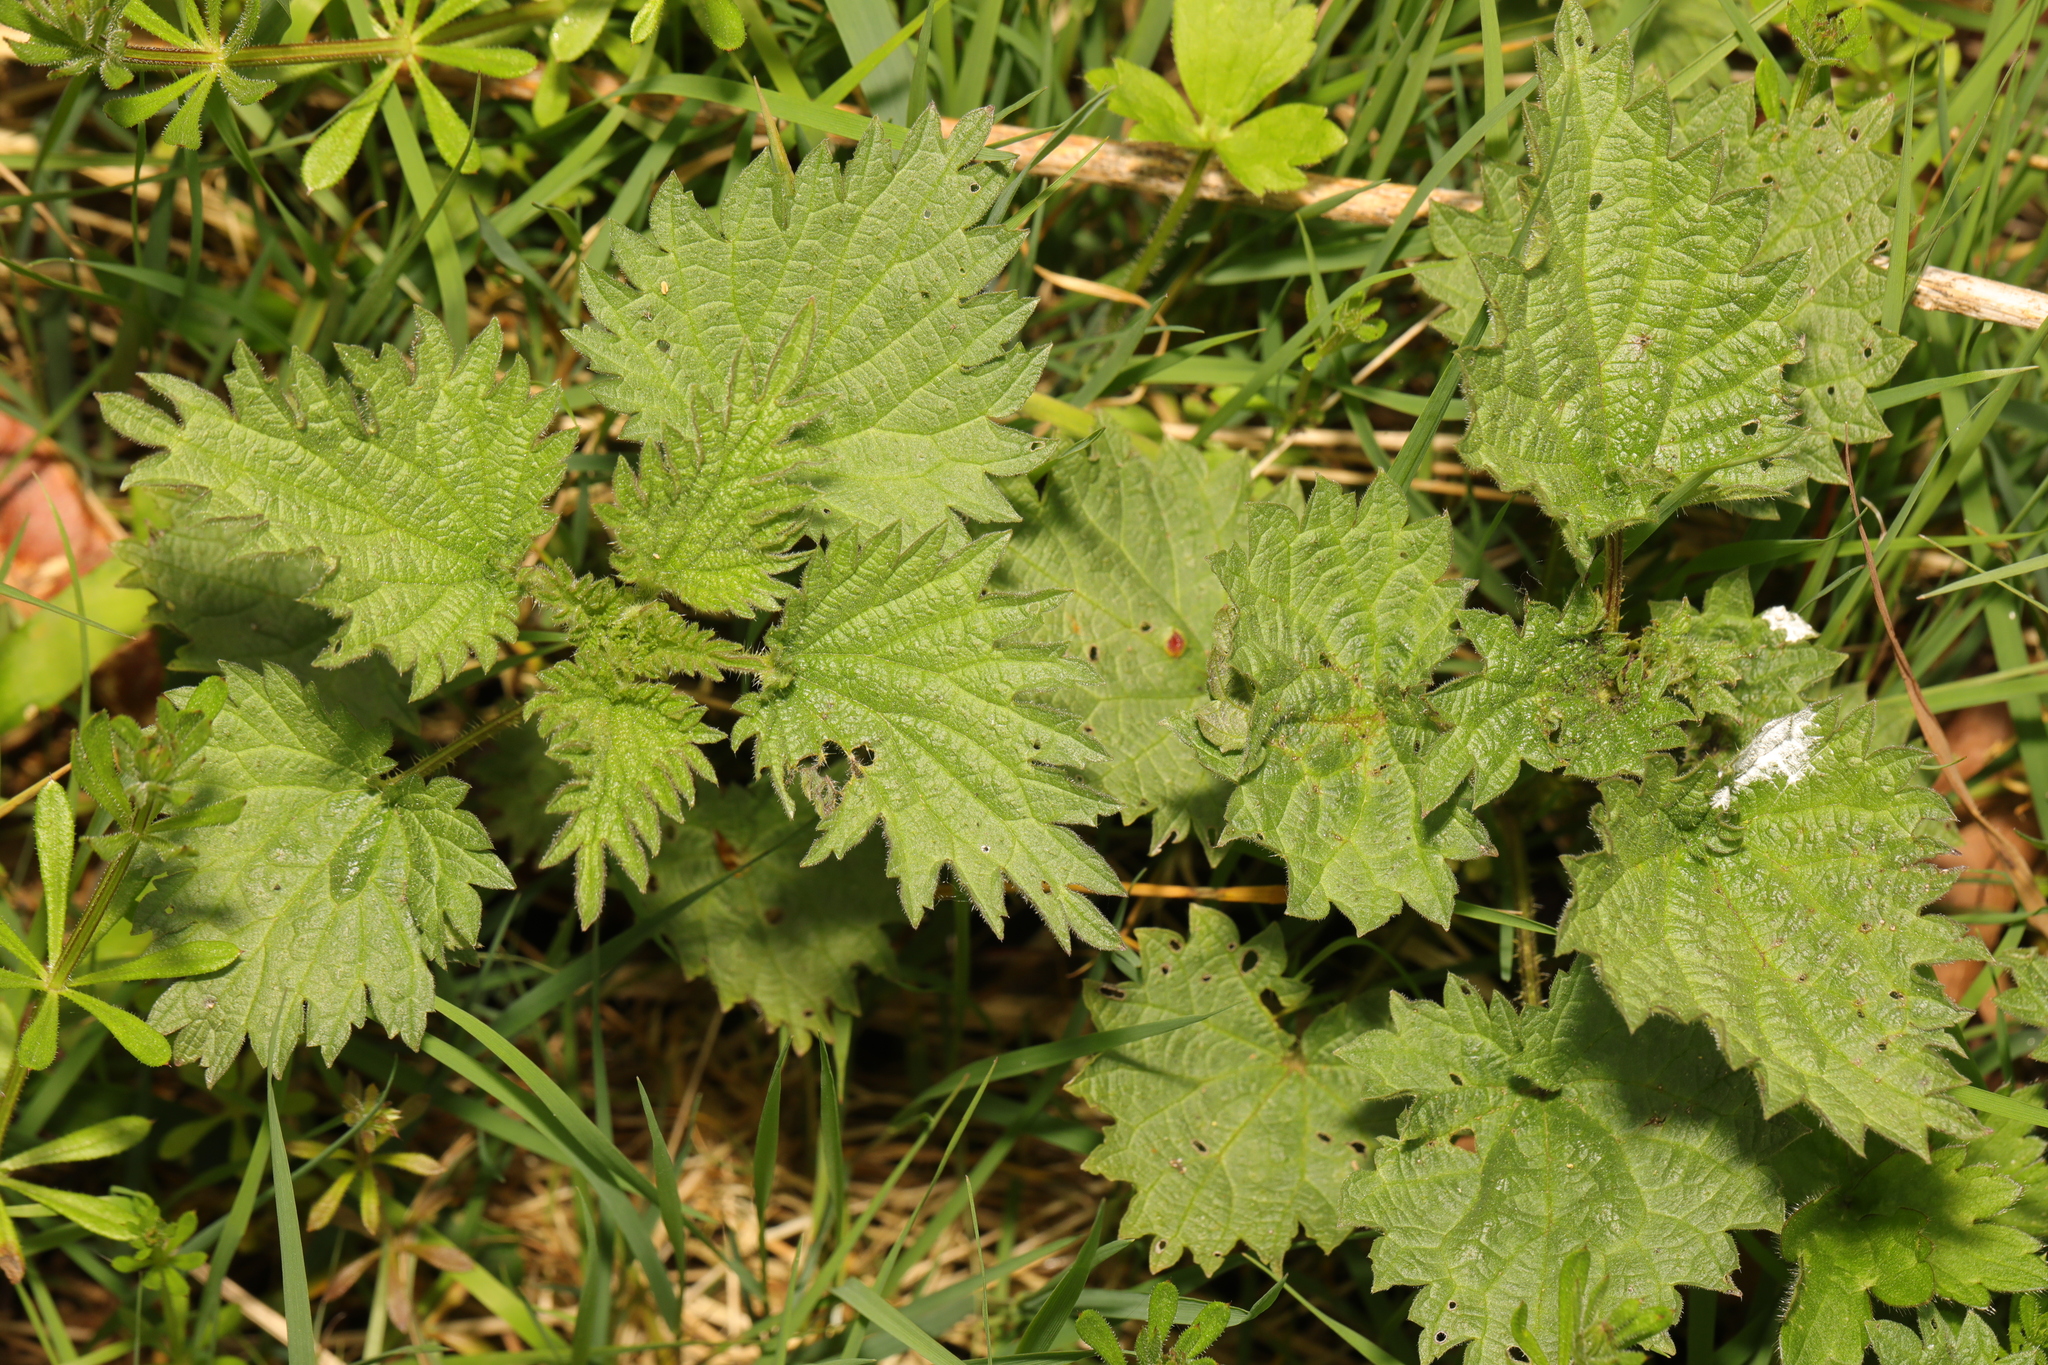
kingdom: Plantae
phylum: Tracheophyta
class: Magnoliopsida
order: Rosales
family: Urticaceae
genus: Urtica
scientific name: Urtica dioica
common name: Common nettle
